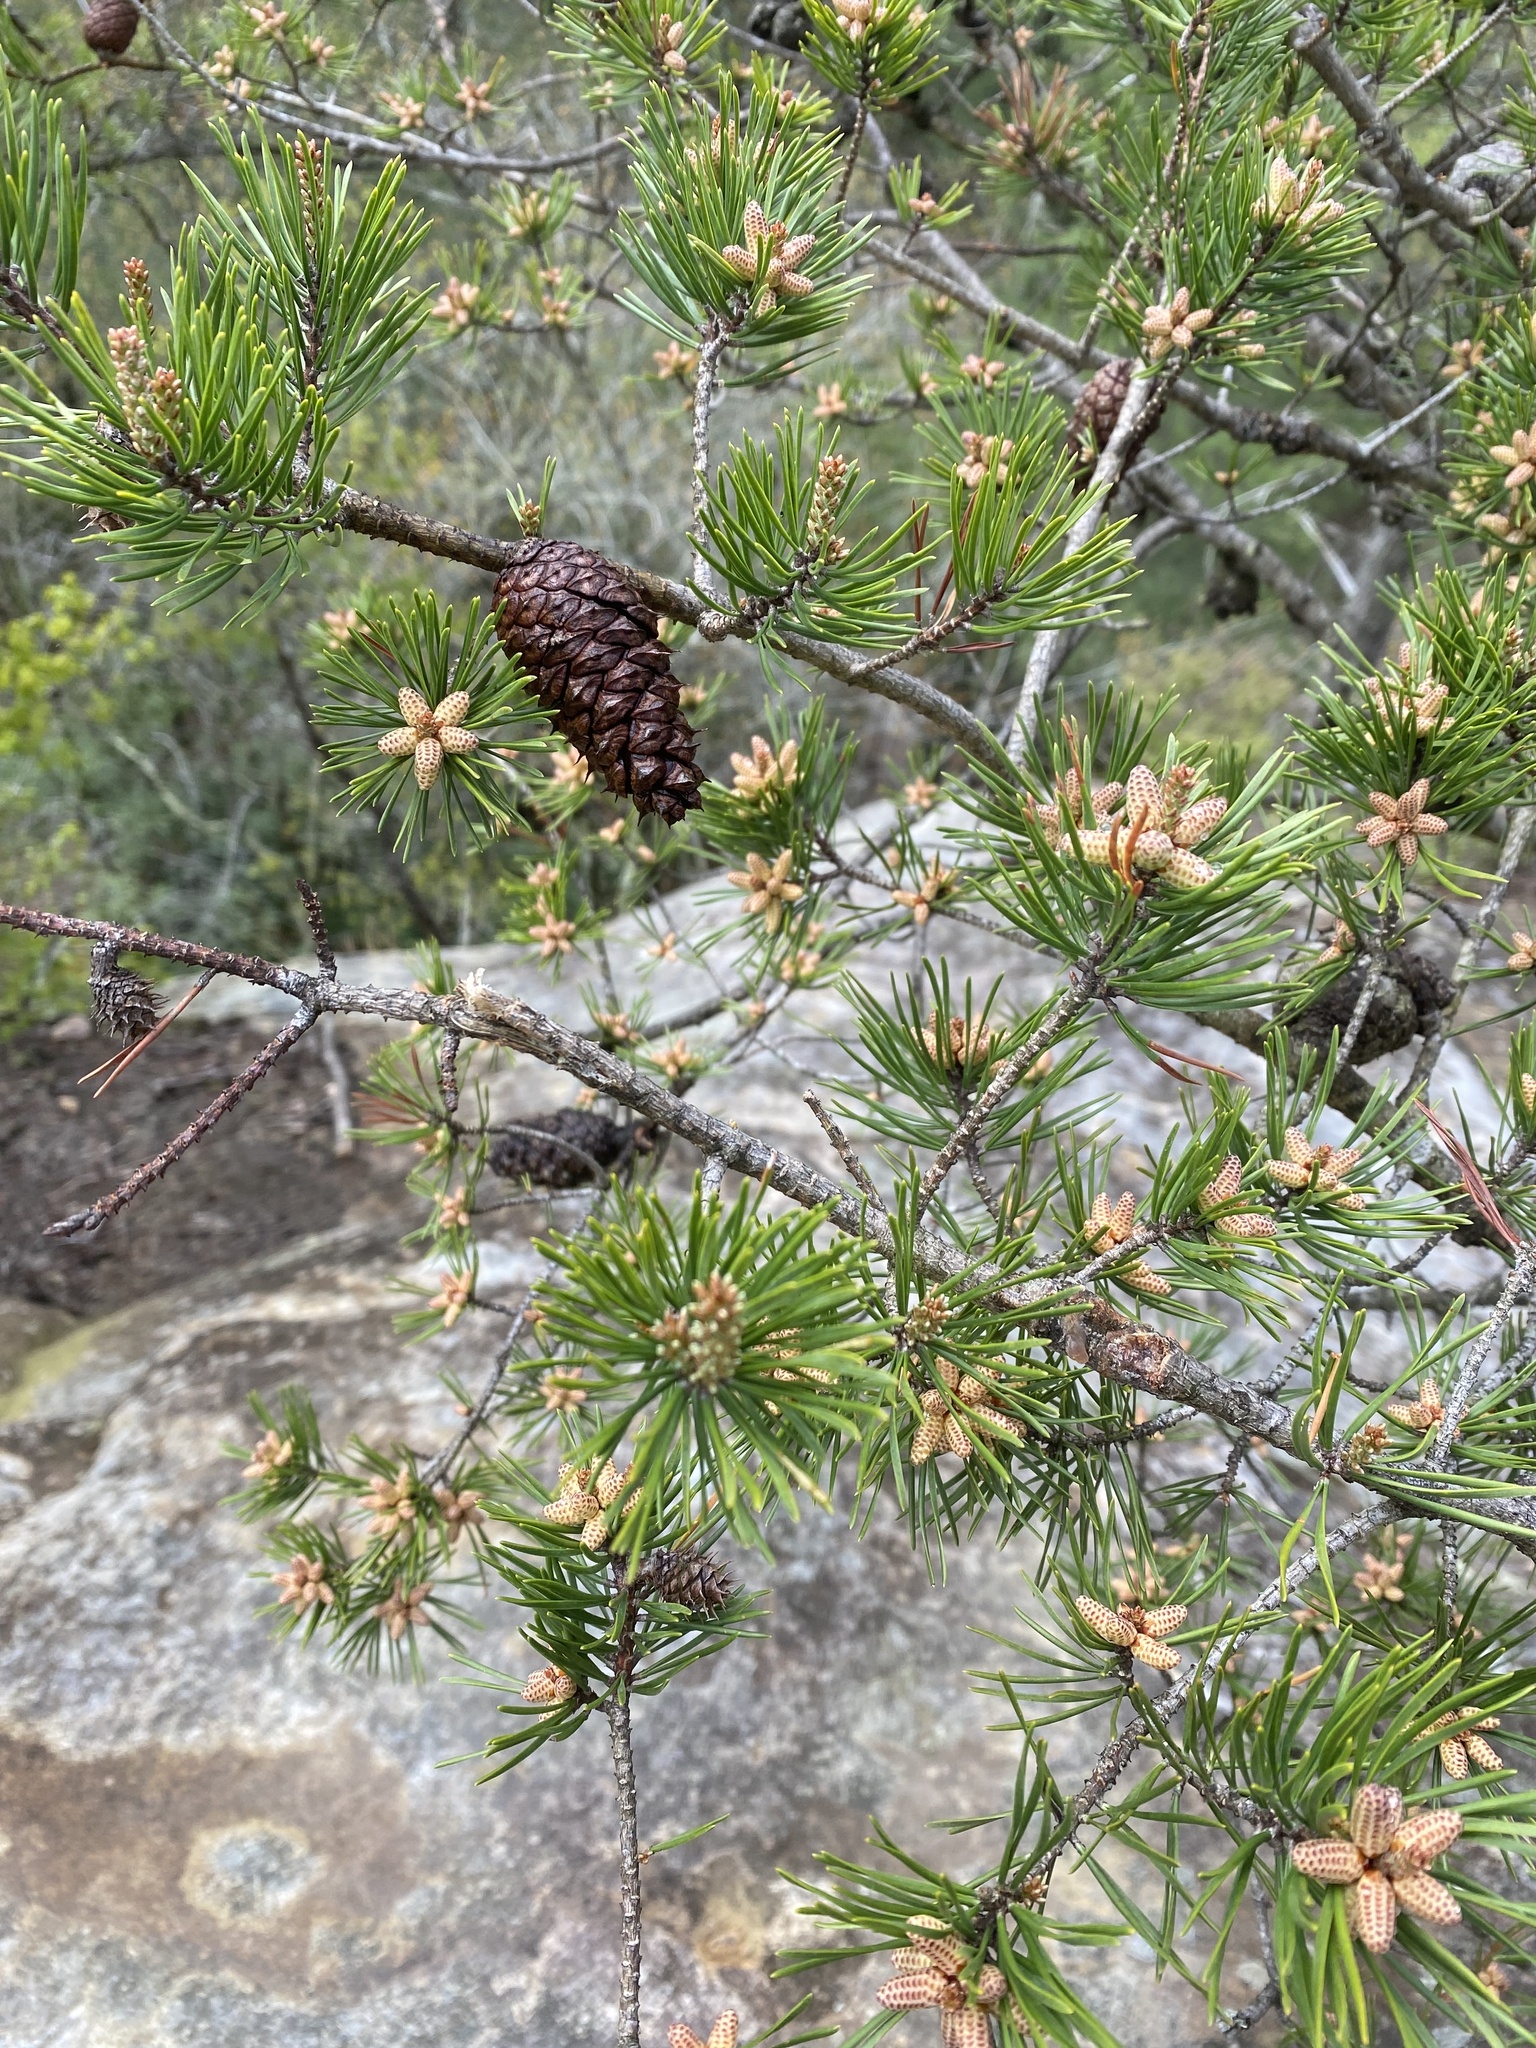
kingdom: Plantae
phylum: Tracheophyta
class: Pinopsida
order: Pinales
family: Pinaceae
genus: Pinus
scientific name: Pinus virginiana
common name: Scrub pine
